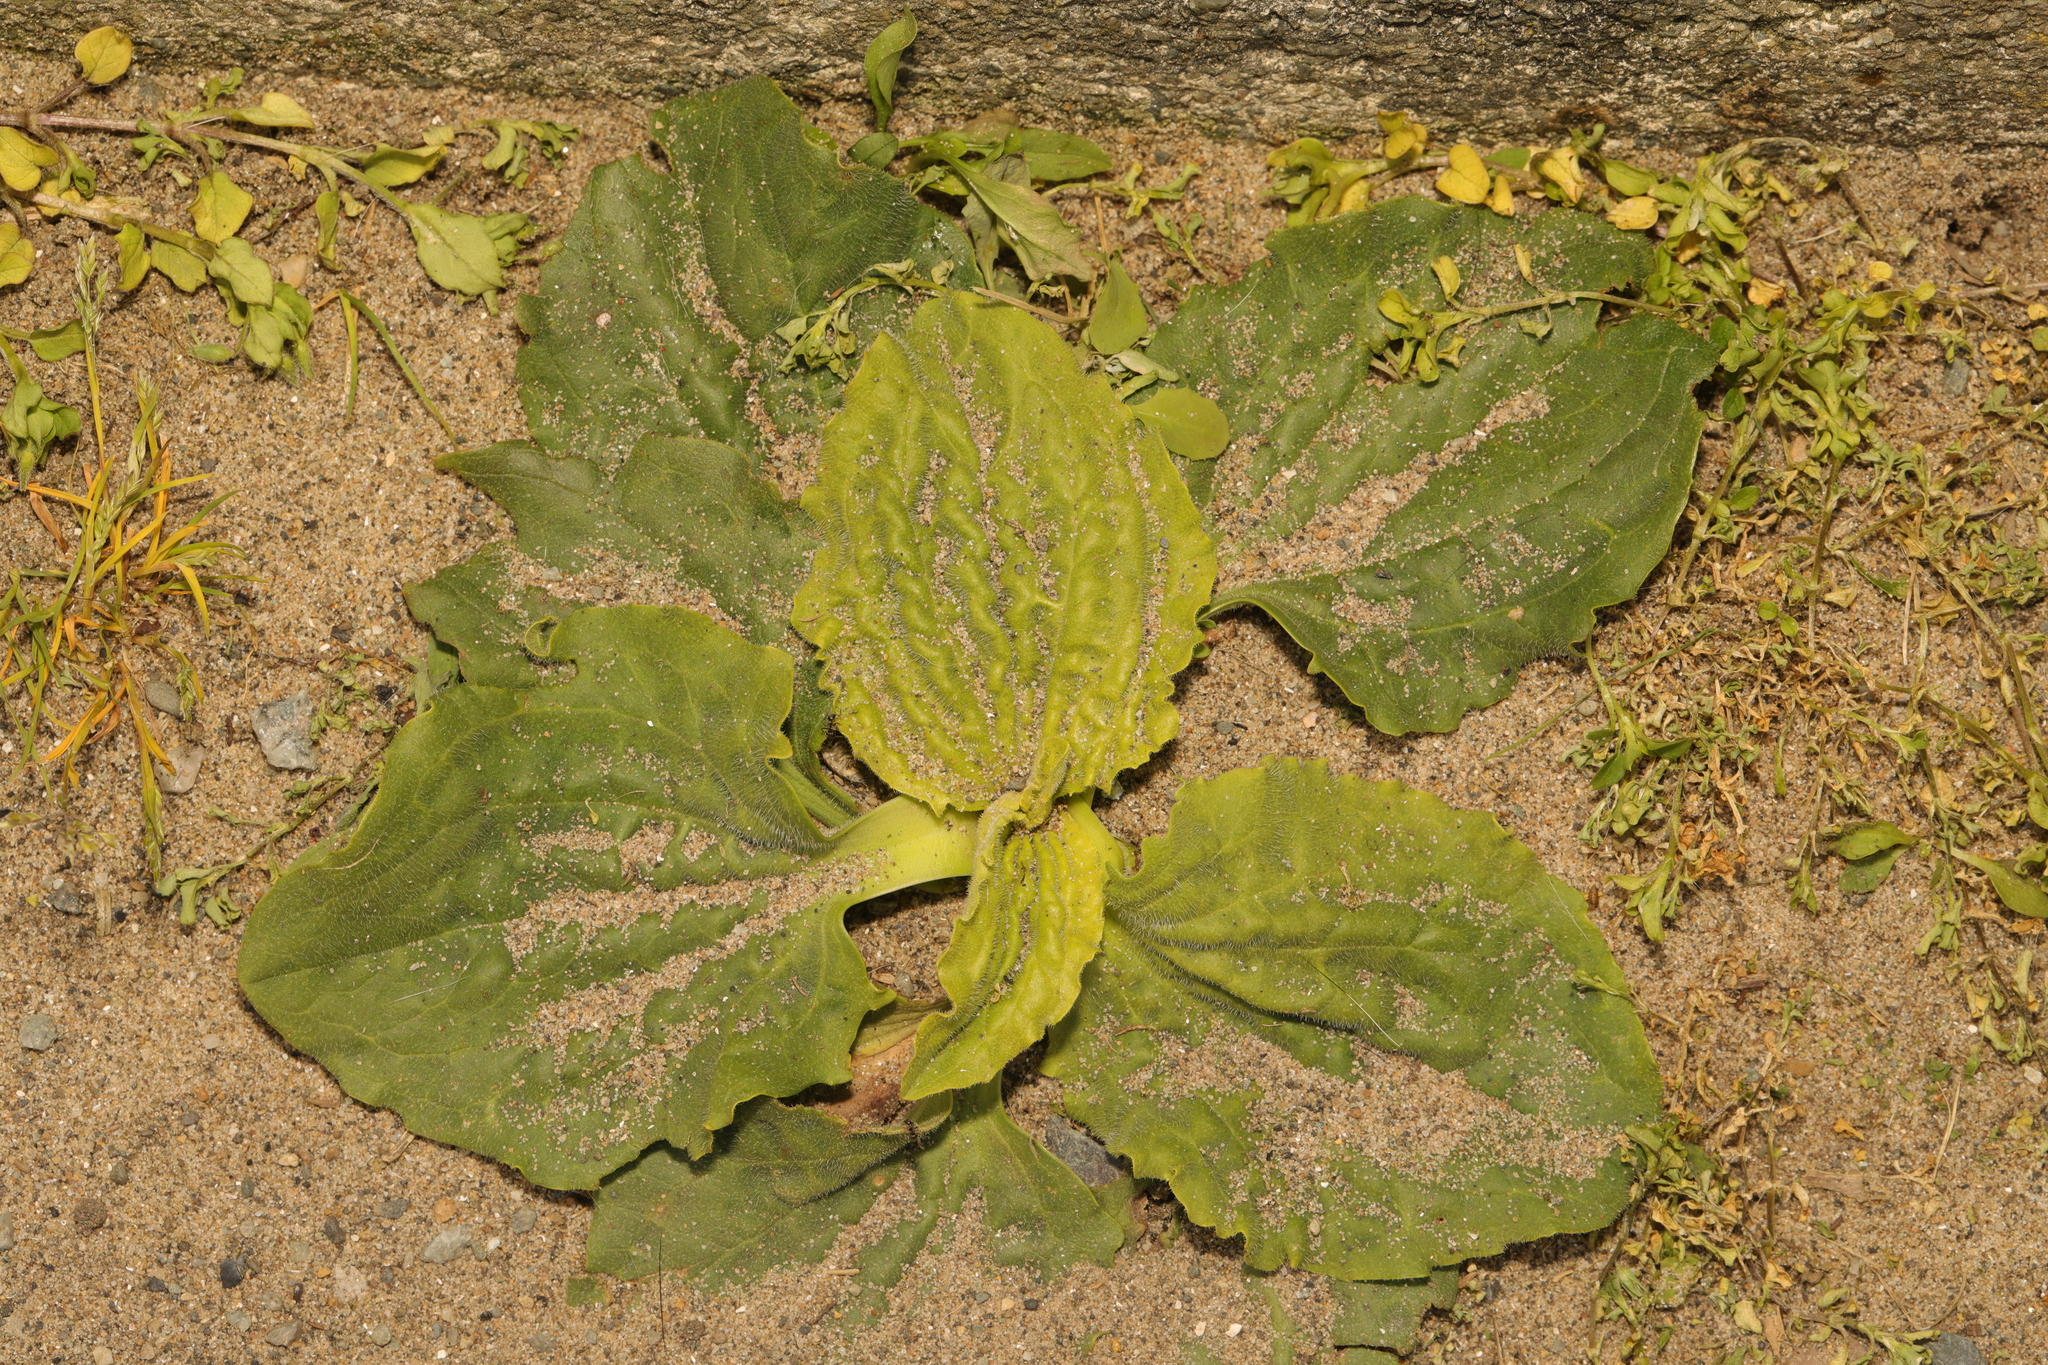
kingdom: Plantae
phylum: Tracheophyta
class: Magnoliopsida
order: Lamiales
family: Plantaginaceae
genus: Plantago
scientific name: Plantago major
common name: Common plantain
